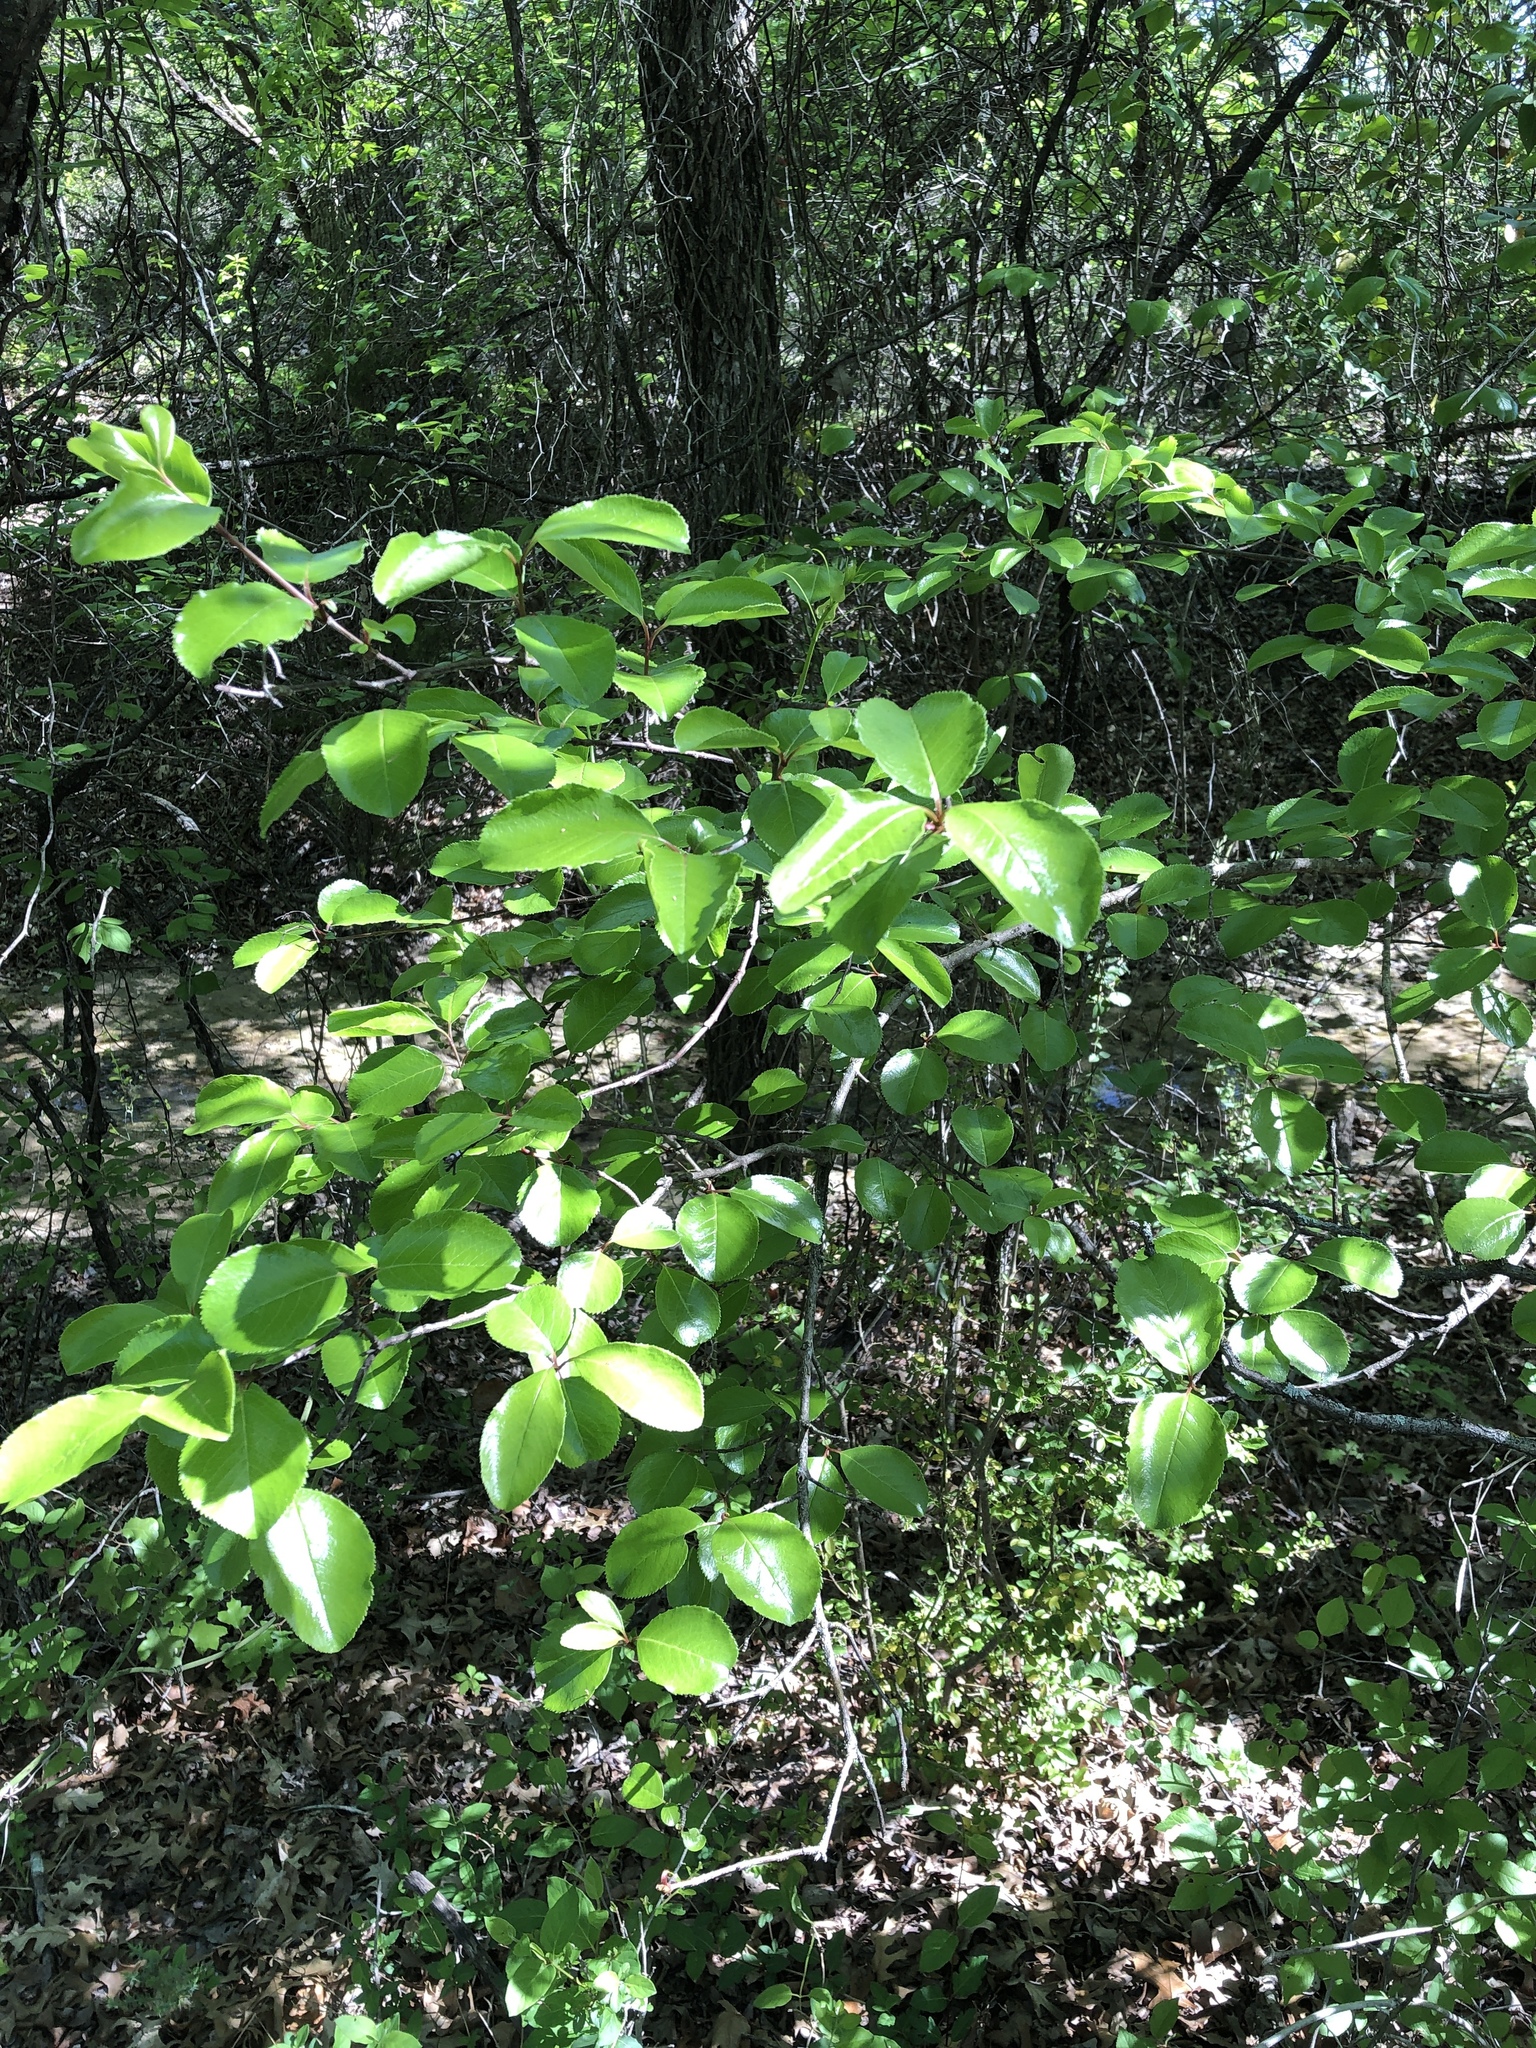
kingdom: Plantae
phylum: Tracheophyta
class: Magnoliopsida
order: Dipsacales
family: Viburnaceae
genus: Viburnum
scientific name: Viburnum rufidulum
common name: Blue haw
